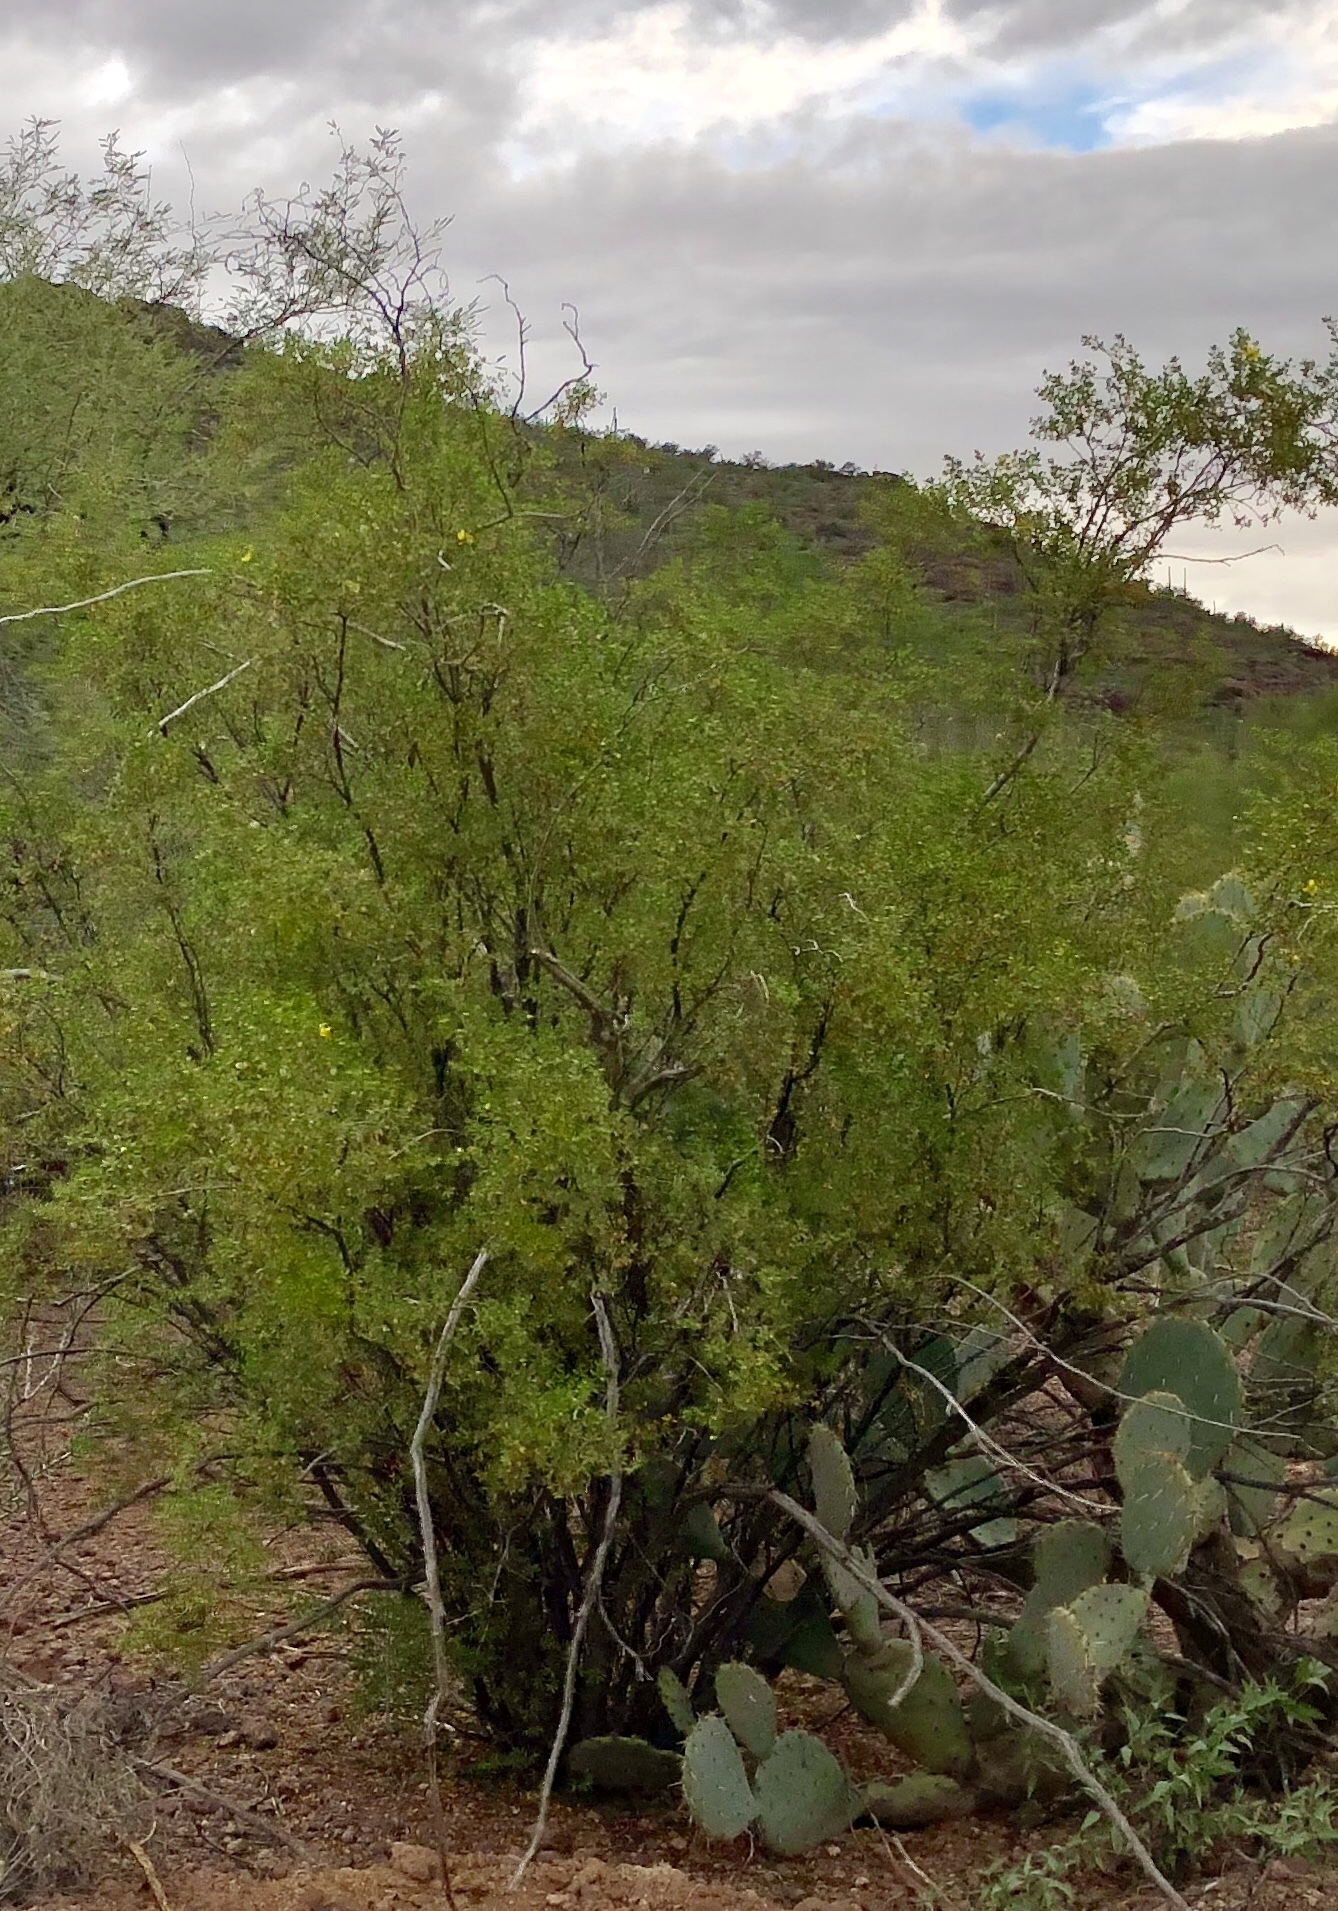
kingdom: Plantae
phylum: Tracheophyta
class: Magnoliopsida
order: Zygophyllales
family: Zygophyllaceae
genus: Larrea
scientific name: Larrea tridentata
